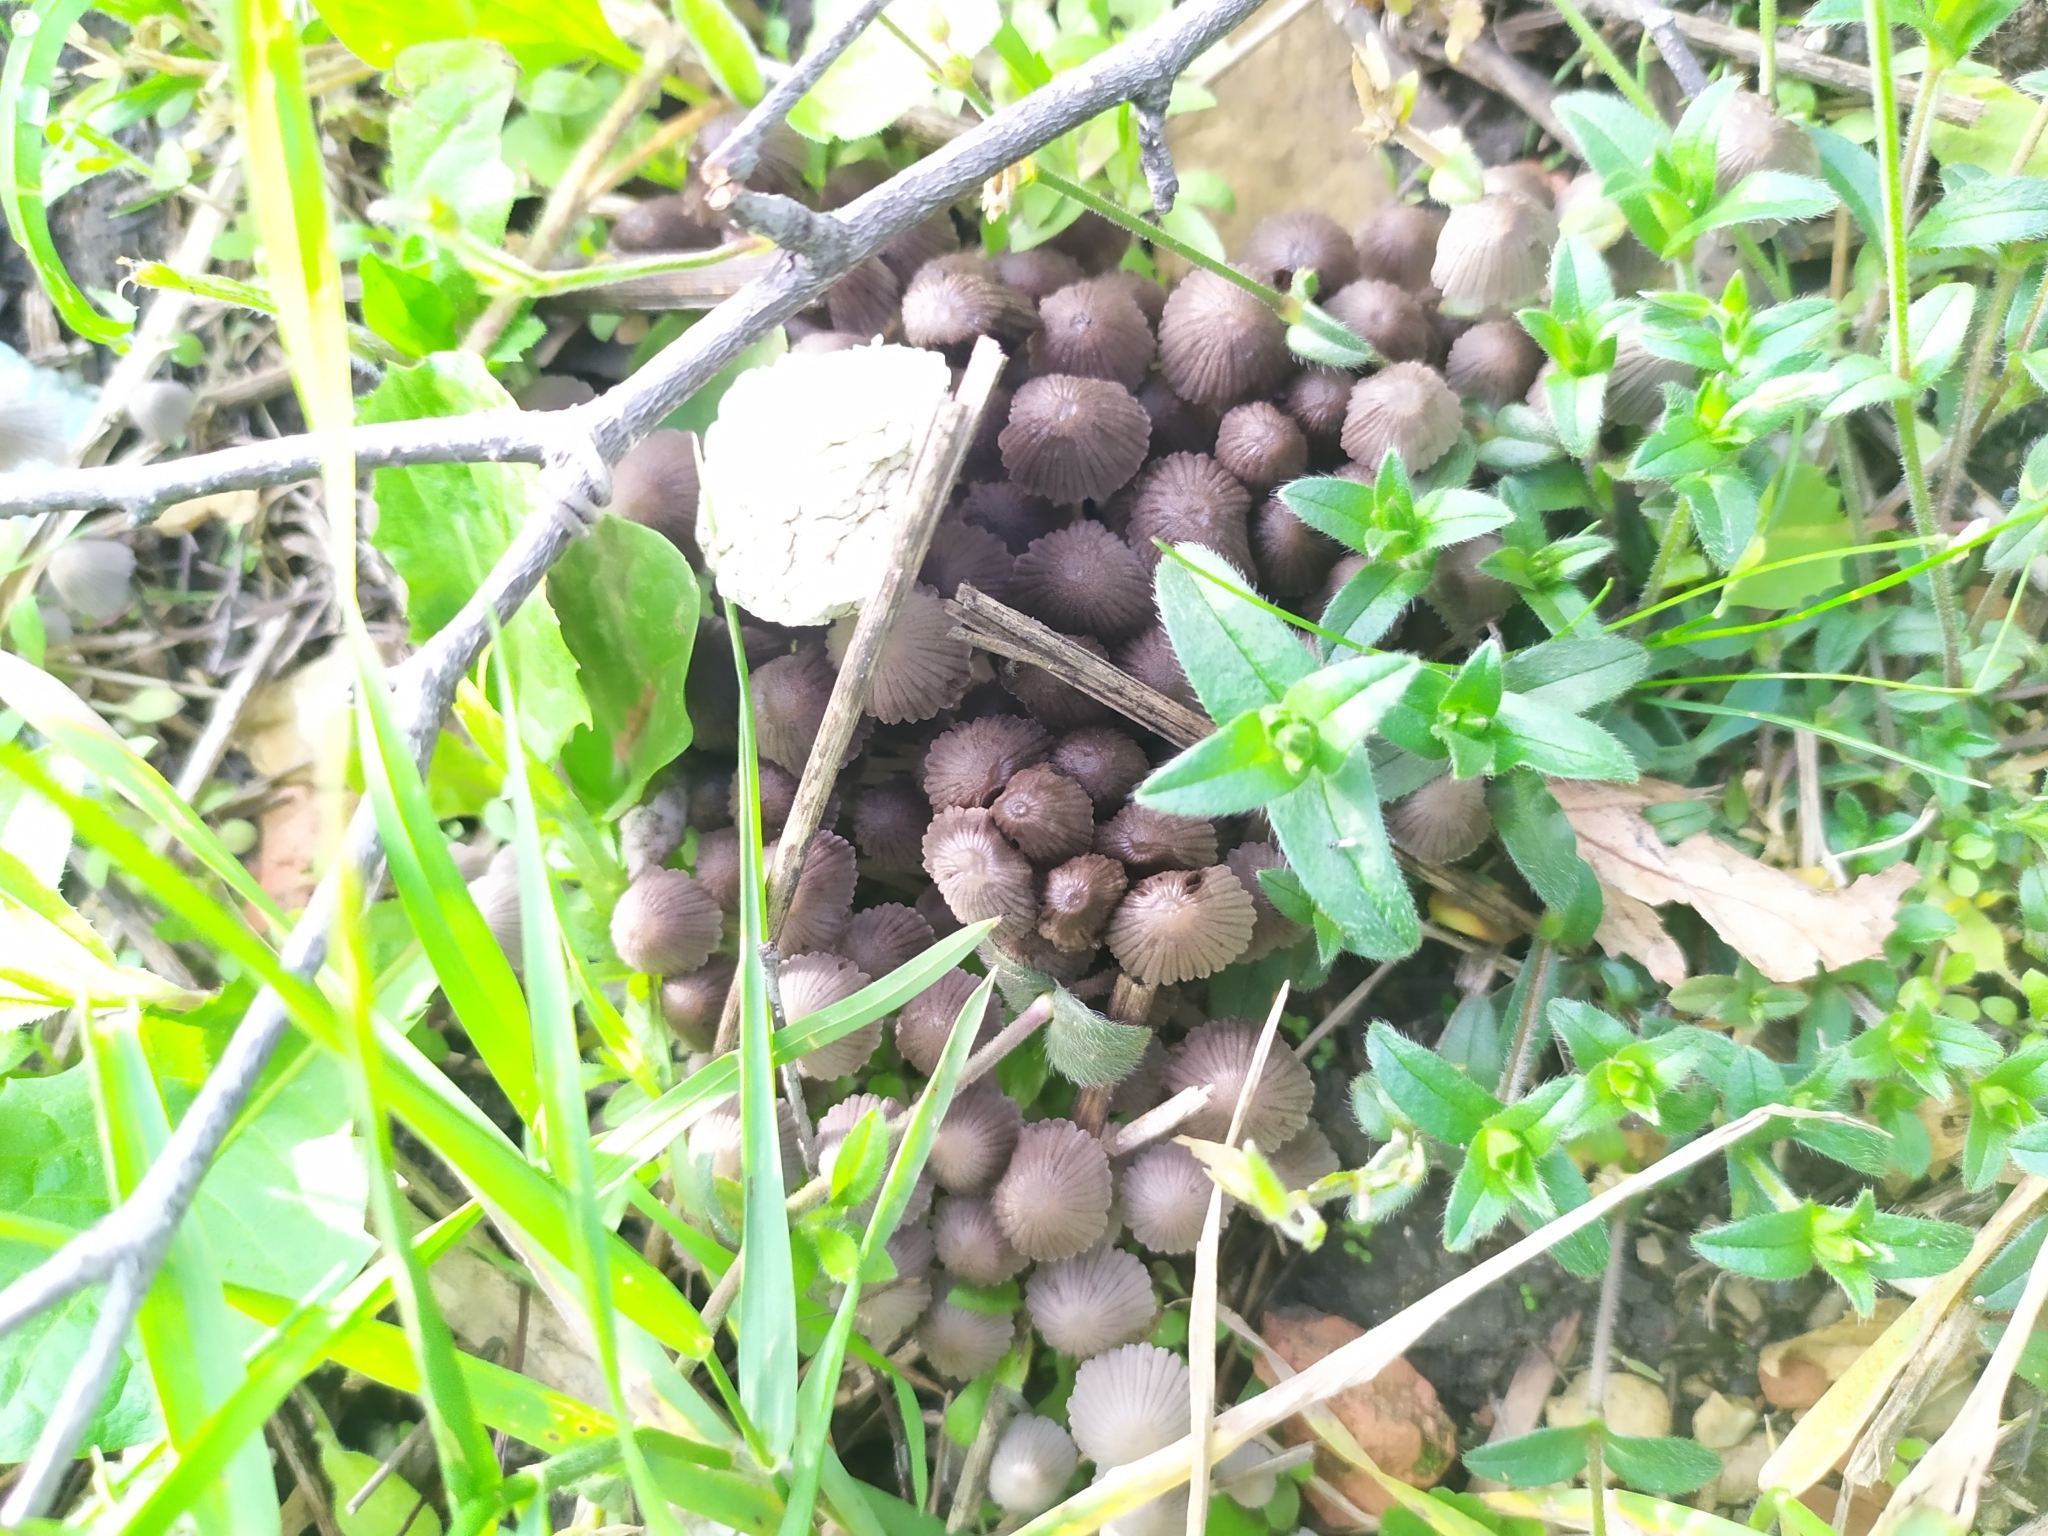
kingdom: Fungi
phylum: Basidiomycota
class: Agaricomycetes
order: Agaricales
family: Psathyrellaceae
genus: Coprinellus
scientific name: Coprinellus disseminatus
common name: Fairies' bonnets
